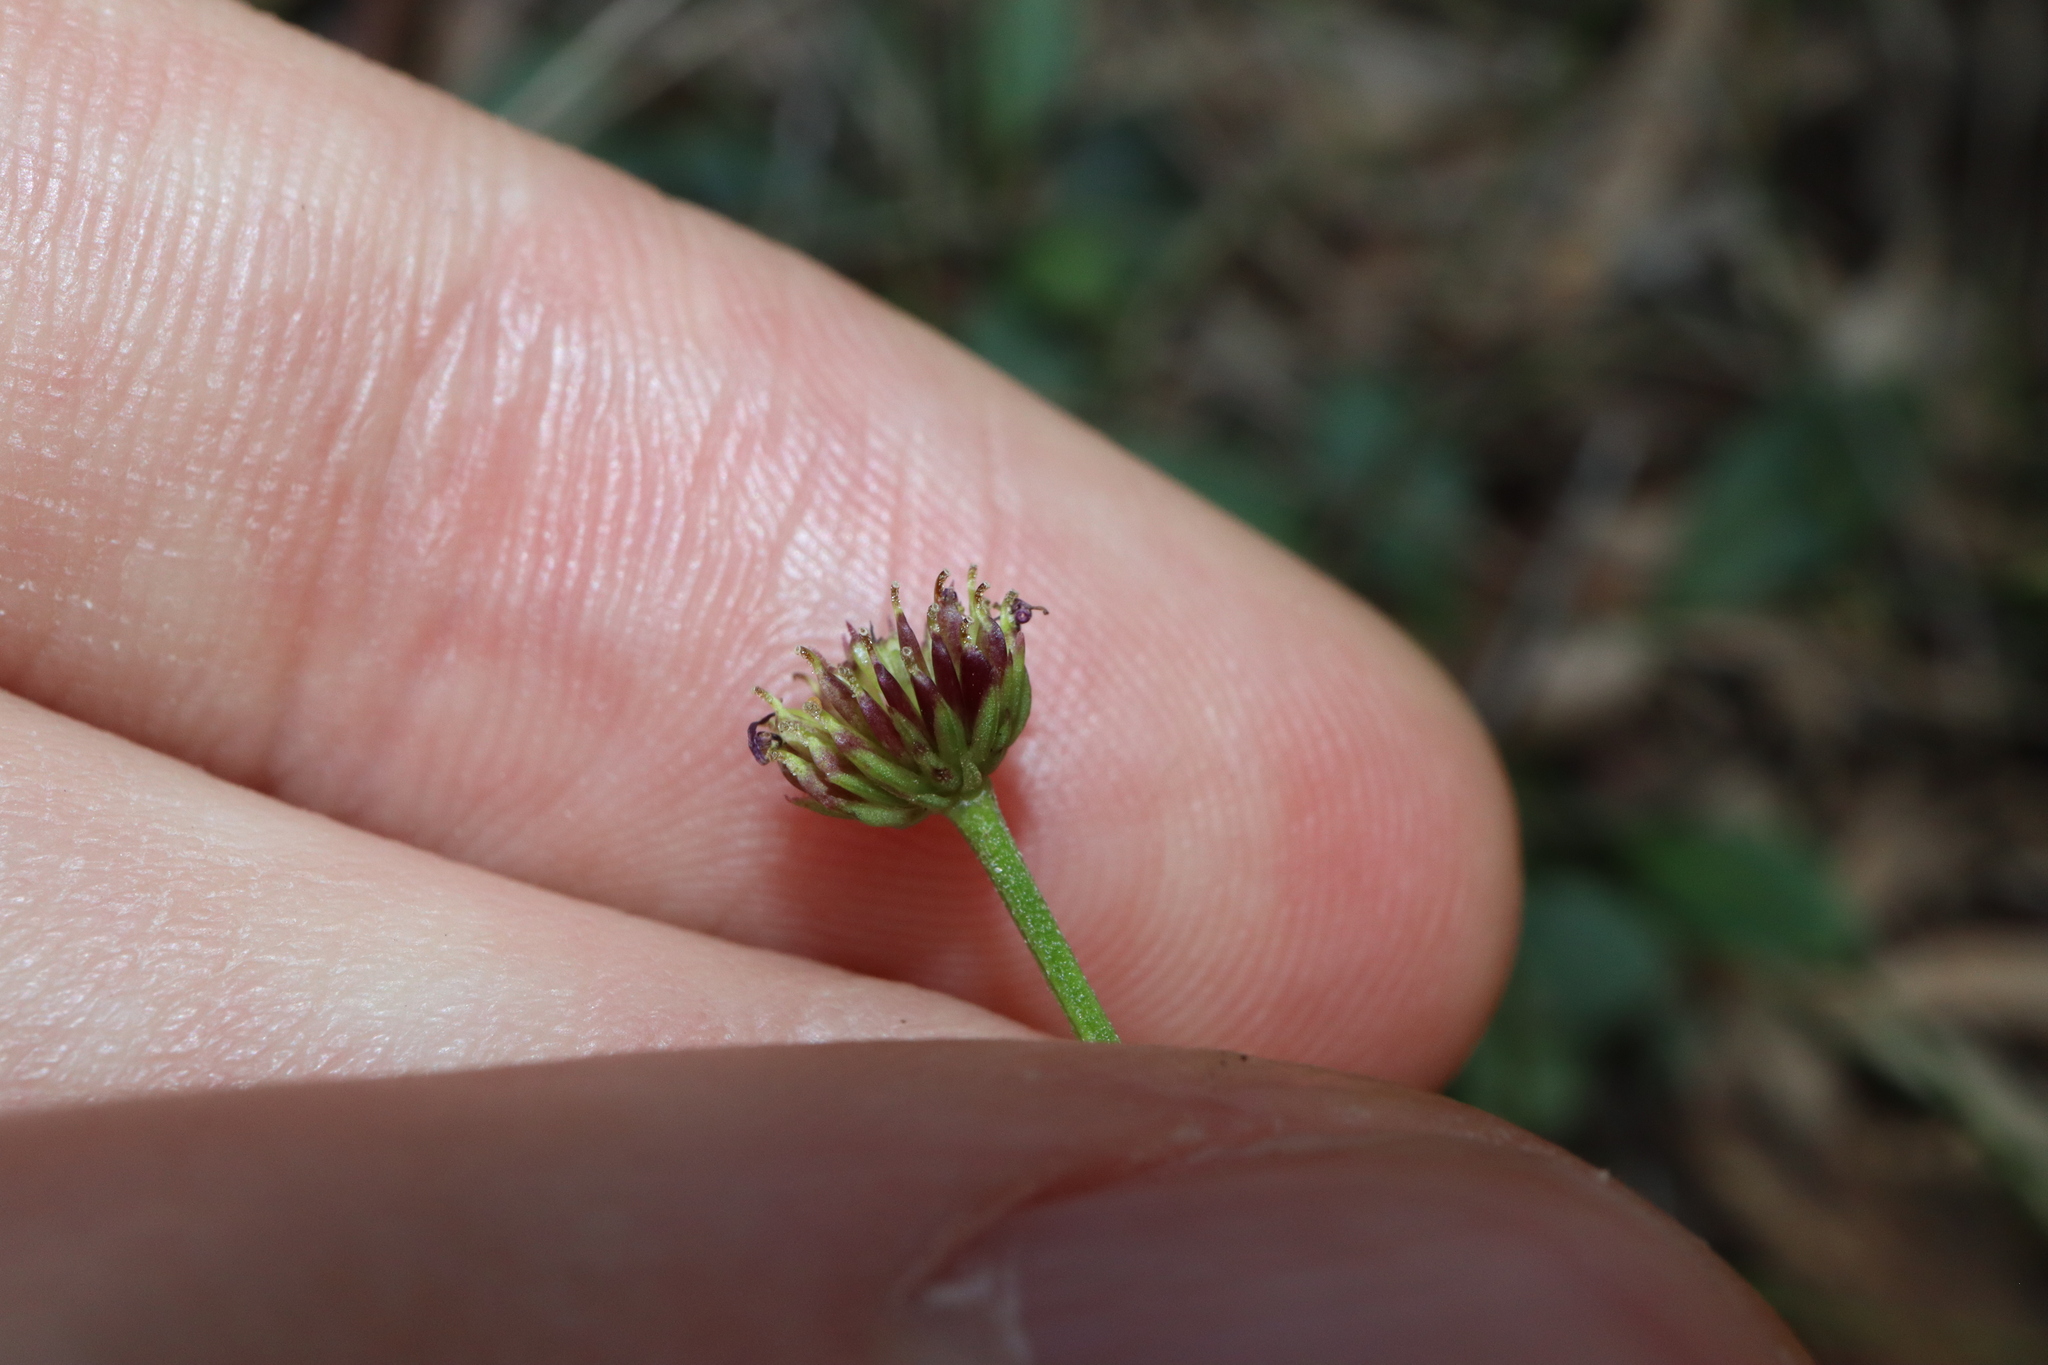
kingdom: Plantae
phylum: Tracheophyta
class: Magnoliopsida
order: Asterales
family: Asteraceae
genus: Lagenophora
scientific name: Lagenophora sublyrata ter
